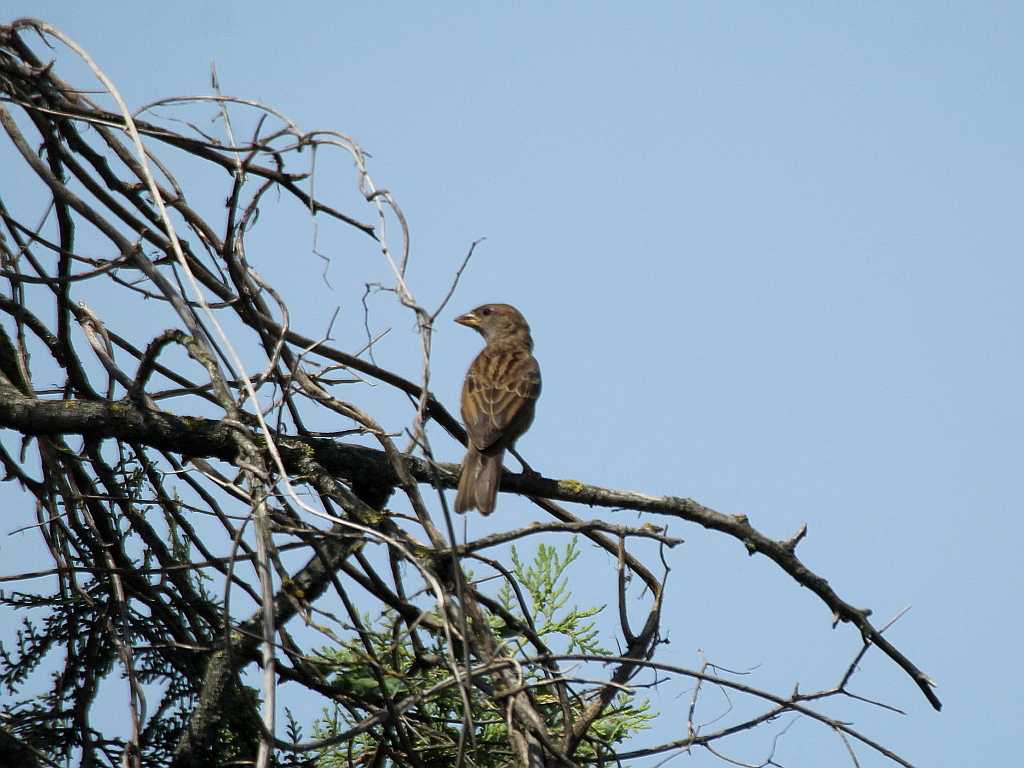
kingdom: Animalia
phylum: Chordata
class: Aves
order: Passeriformes
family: Passeridae
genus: Passer
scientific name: Passer domesticus
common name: House sparrow
